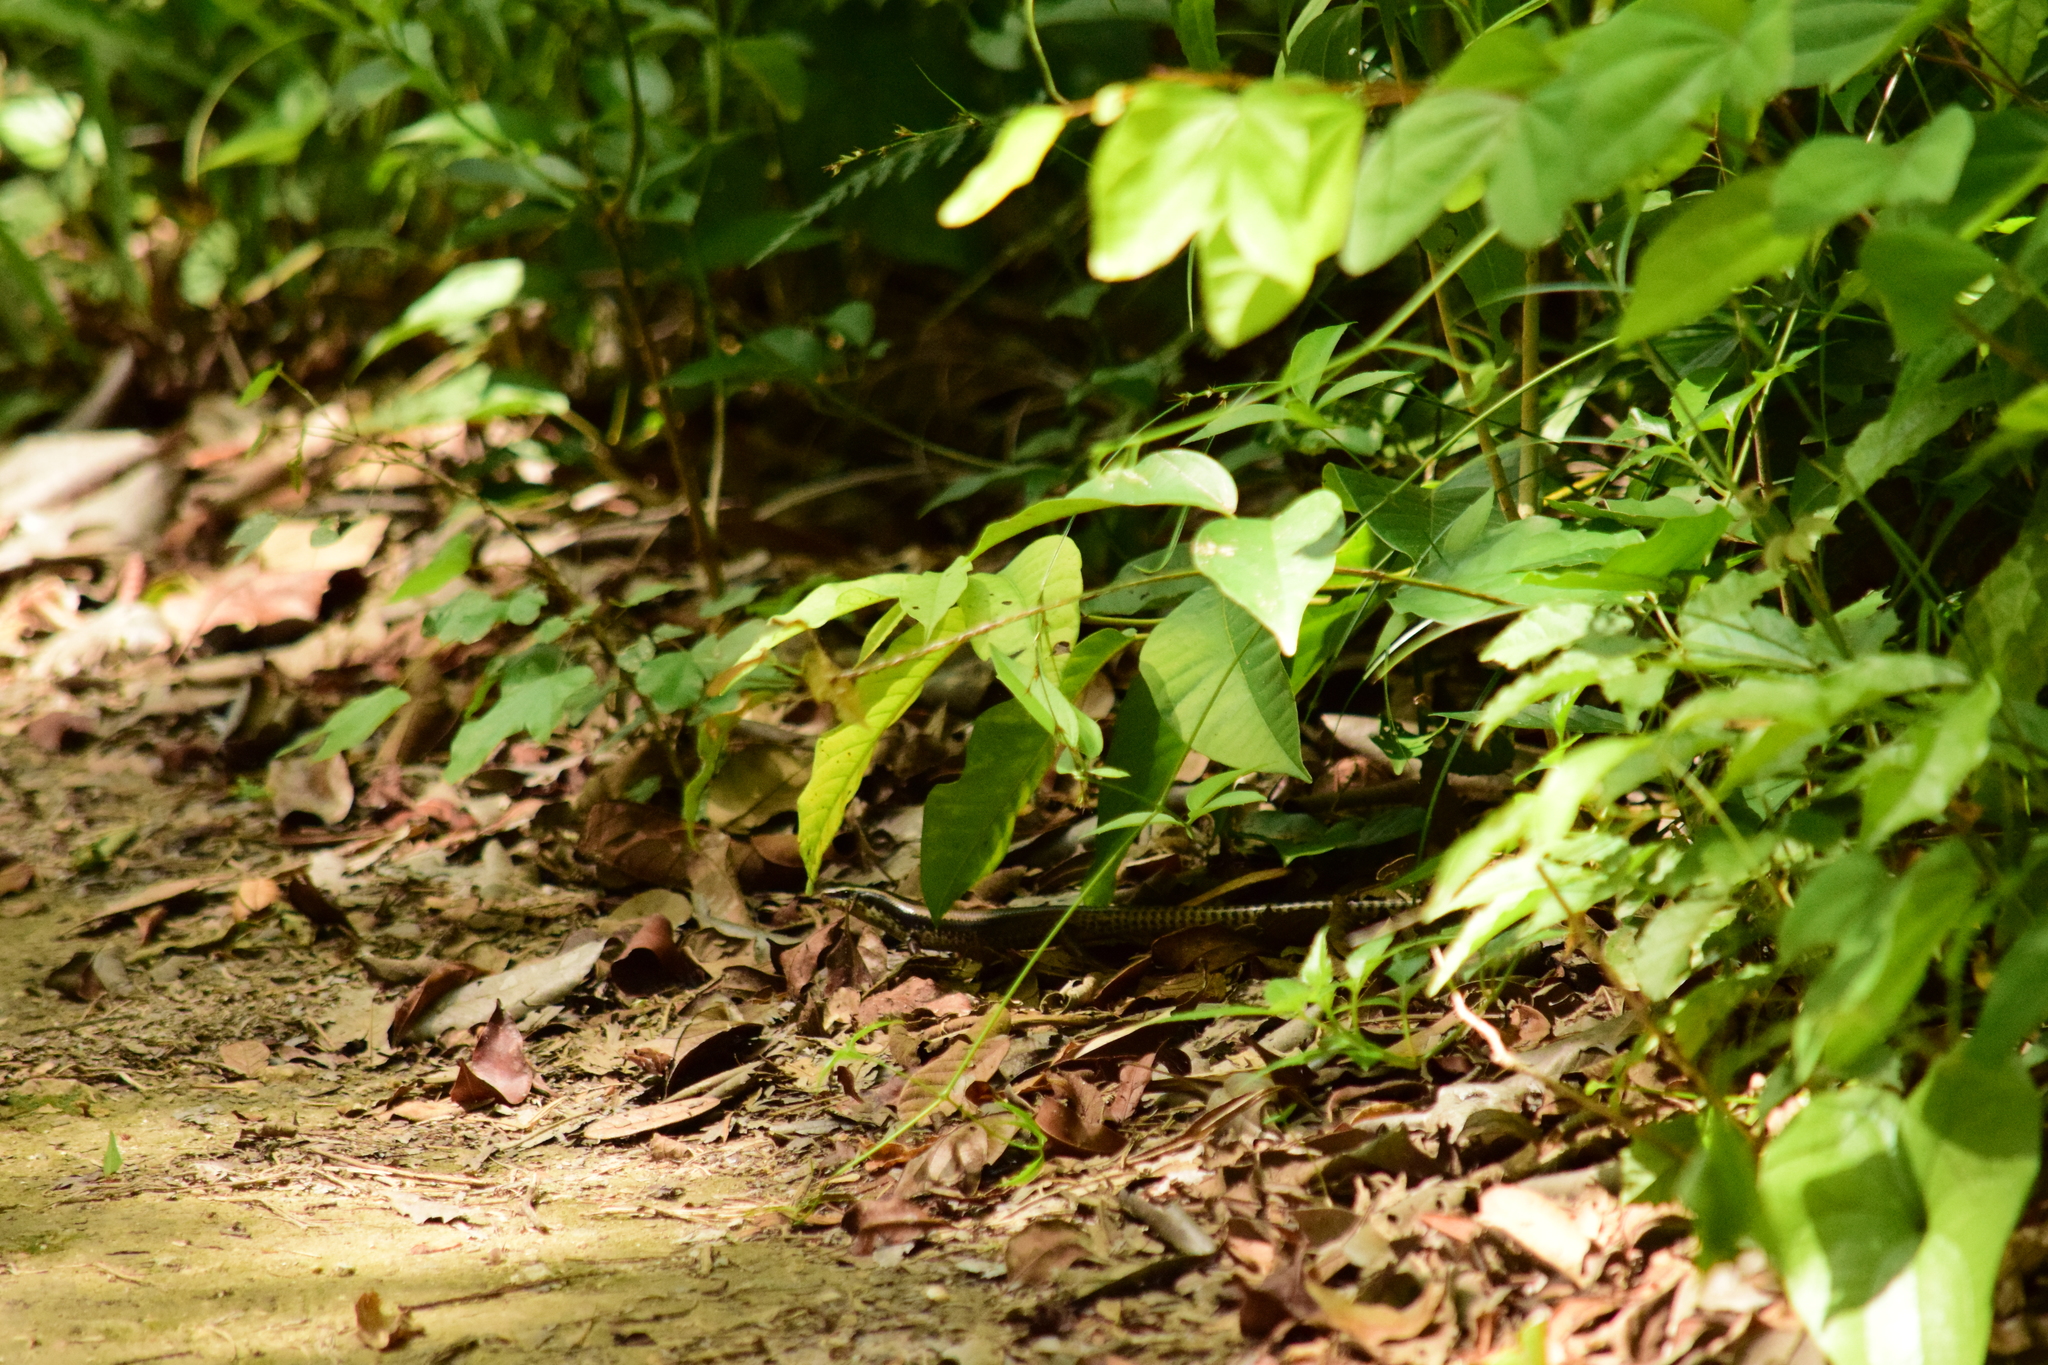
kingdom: Animalia
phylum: Chordata
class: Squamata
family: Scincidae
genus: Mesoscincus
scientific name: Mesoscincus schwartzei
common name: Mayan black-headed skink
